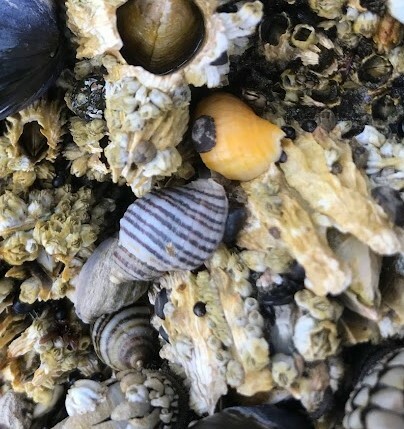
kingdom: Animalia
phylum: Mollusca
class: Gastropoda
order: Neogastropoda
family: Muricidae
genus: Nucella
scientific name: Nucella ostrina
